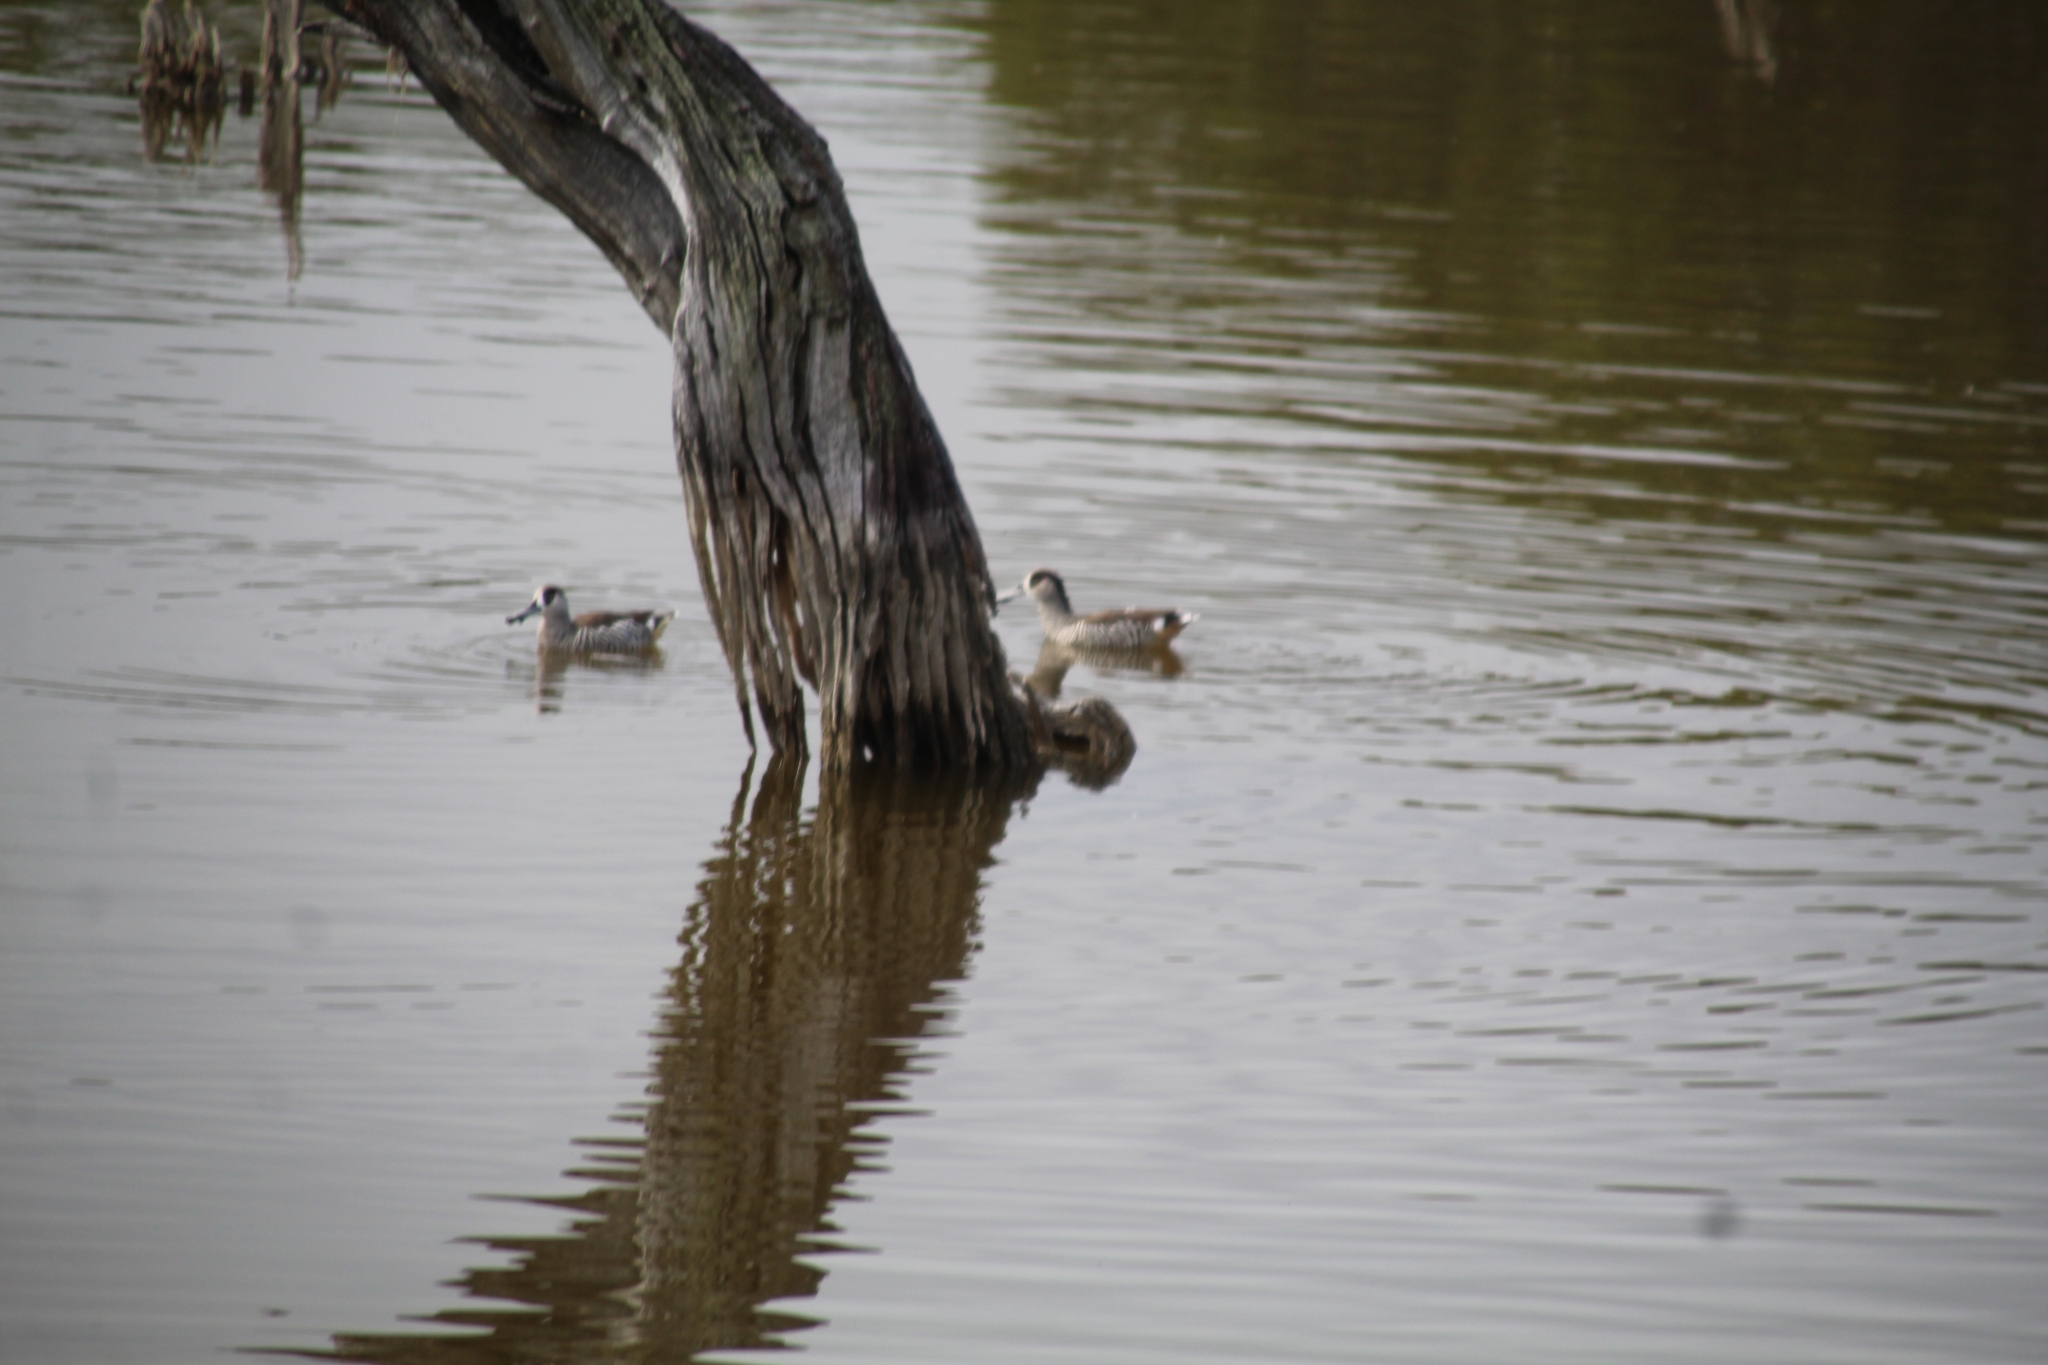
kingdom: Animalia
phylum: Chordata
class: Aves
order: Anseriformes
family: Anatidae
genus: Malacorhynchus
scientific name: Malacorhynchus membranaceus
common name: Pink-eared duck
